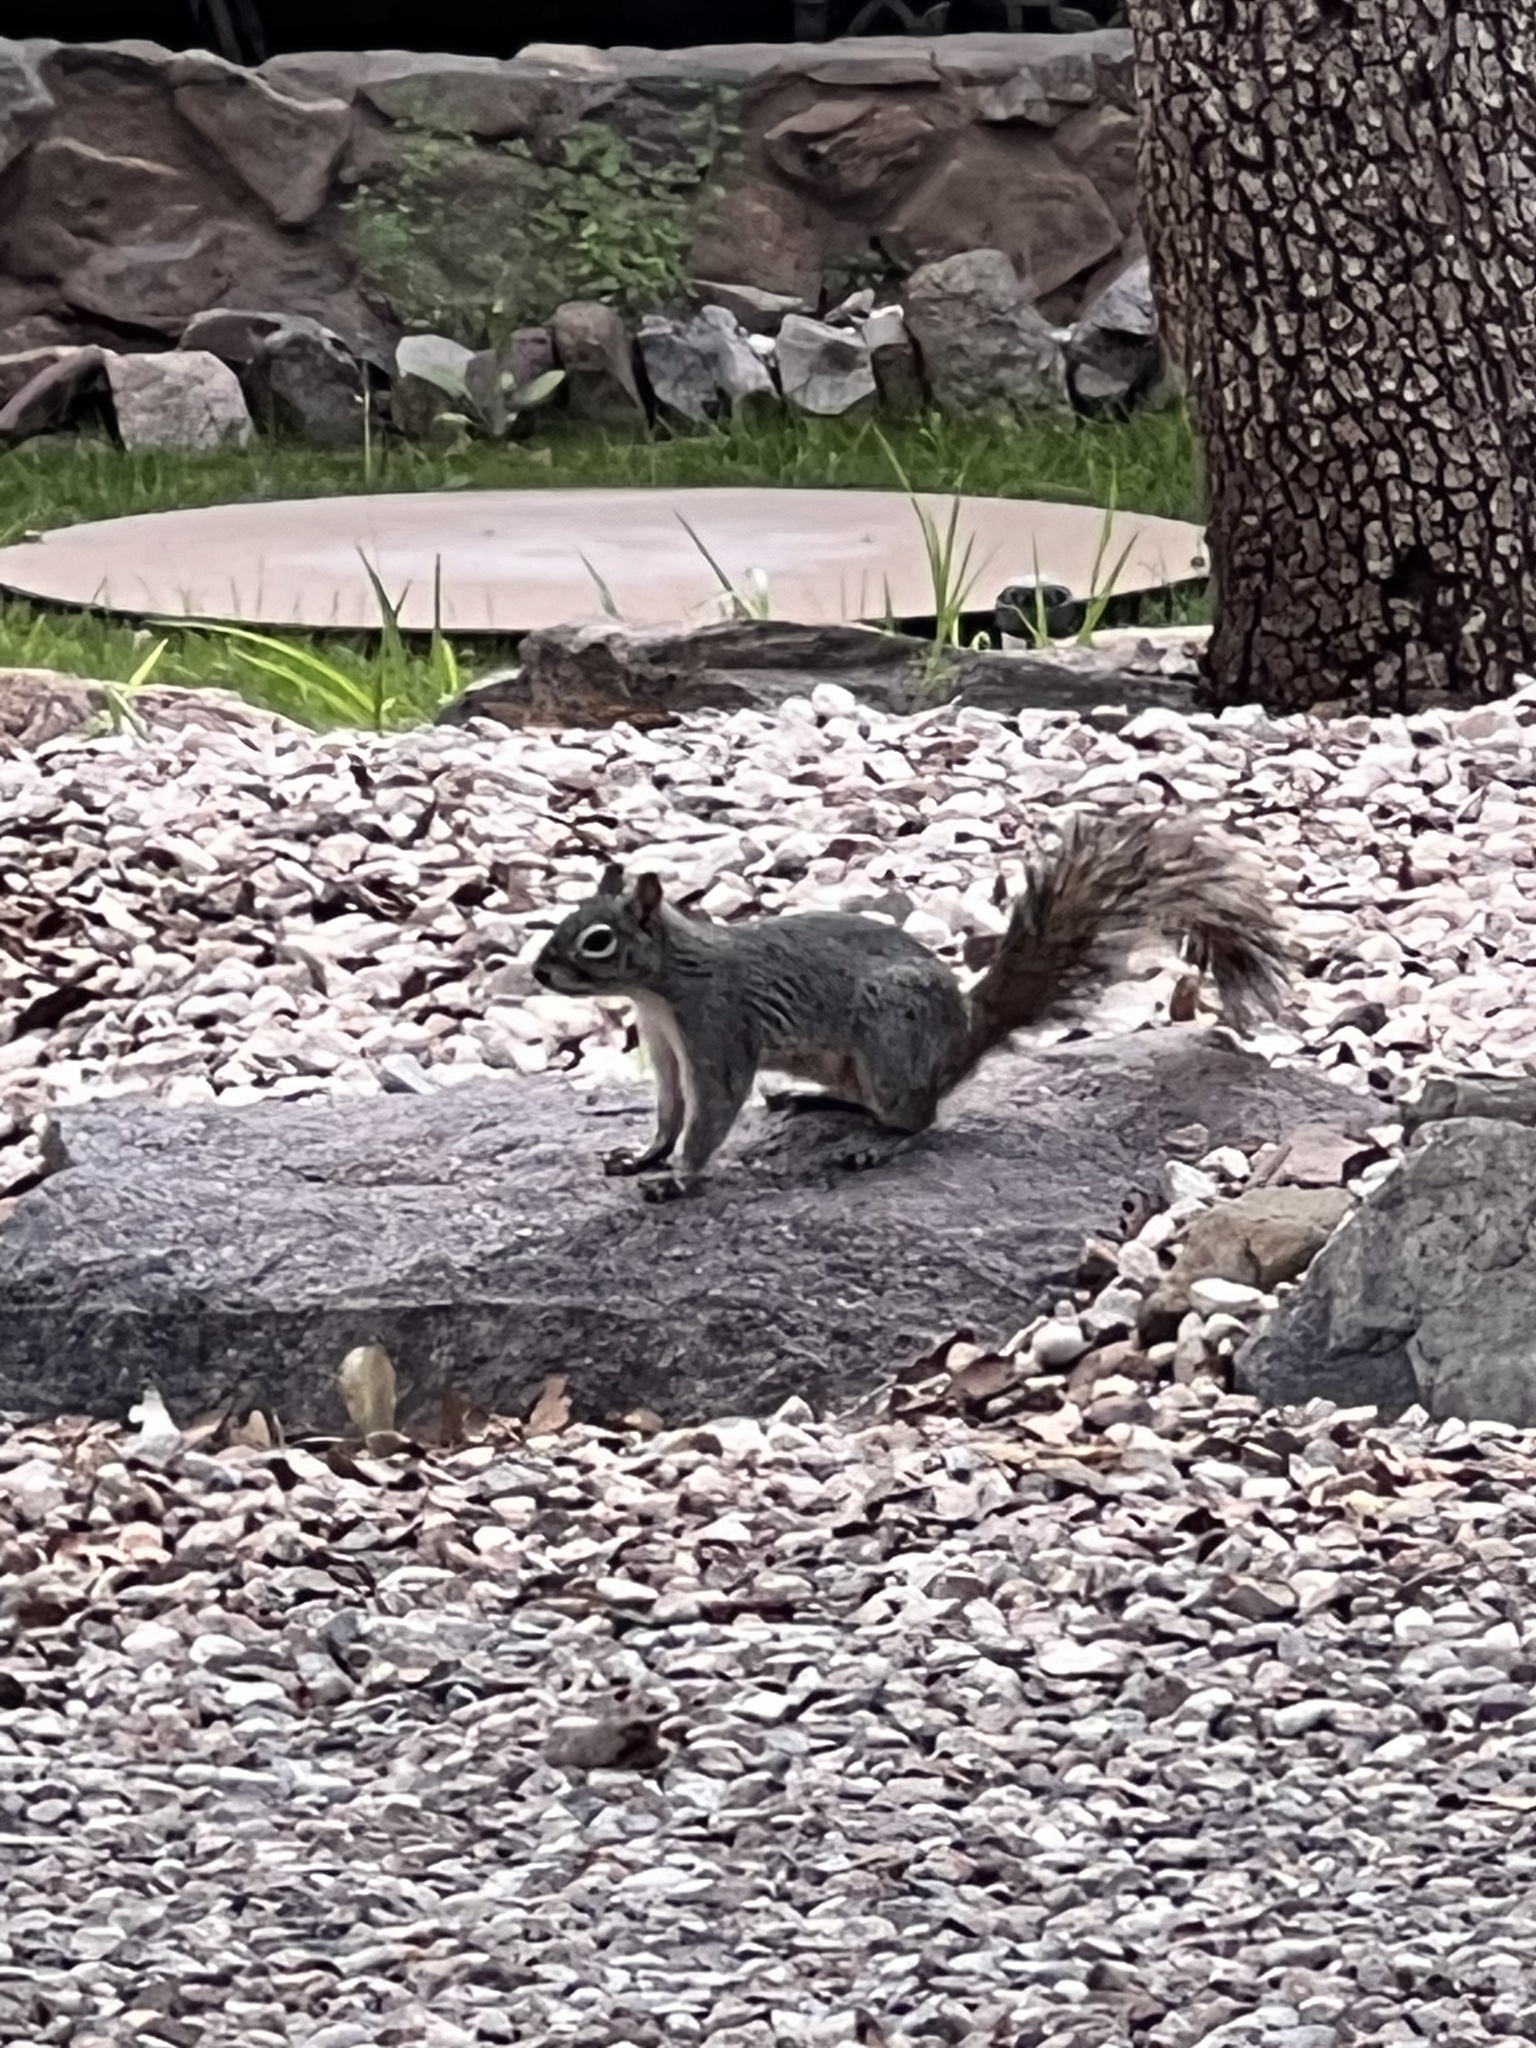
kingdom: Animalia
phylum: Chordata
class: Mammalia
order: Rodentia
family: Sciuridae
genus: Sciurus
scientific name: Sciurus arizonensis
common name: Arizona gray squirrel
